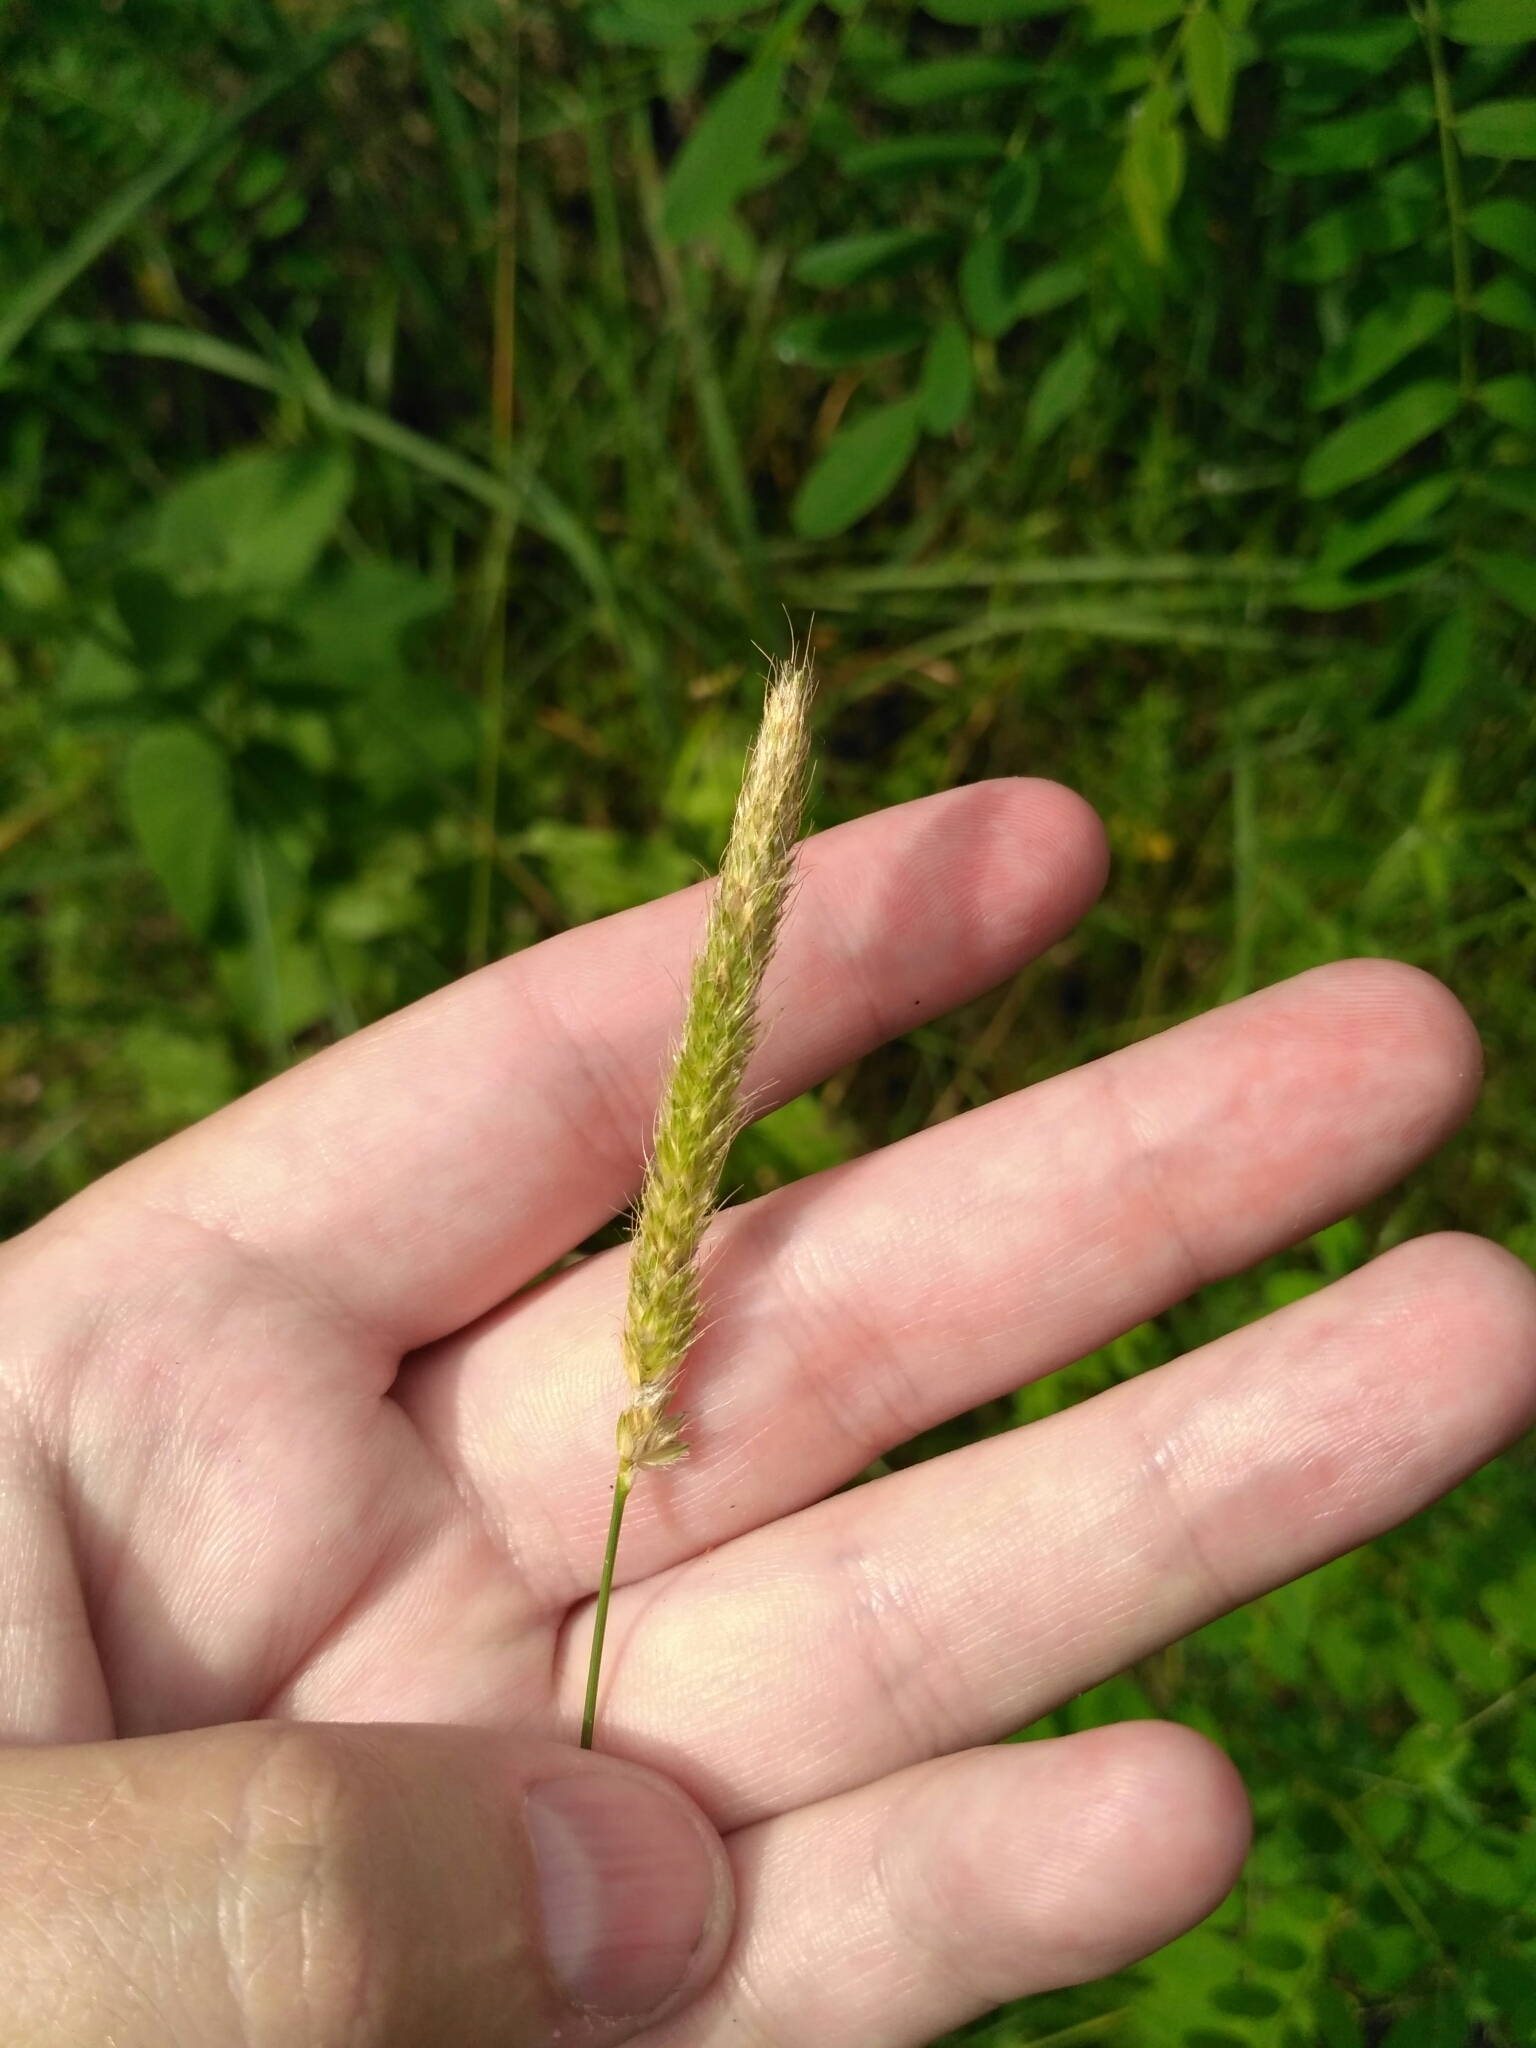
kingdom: Plantae
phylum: Tracheophyta
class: Liliopsida
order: Poales
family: Poaceae
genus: Alopecurus
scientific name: Alopecurus pratensis
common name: Meadow foxtail
